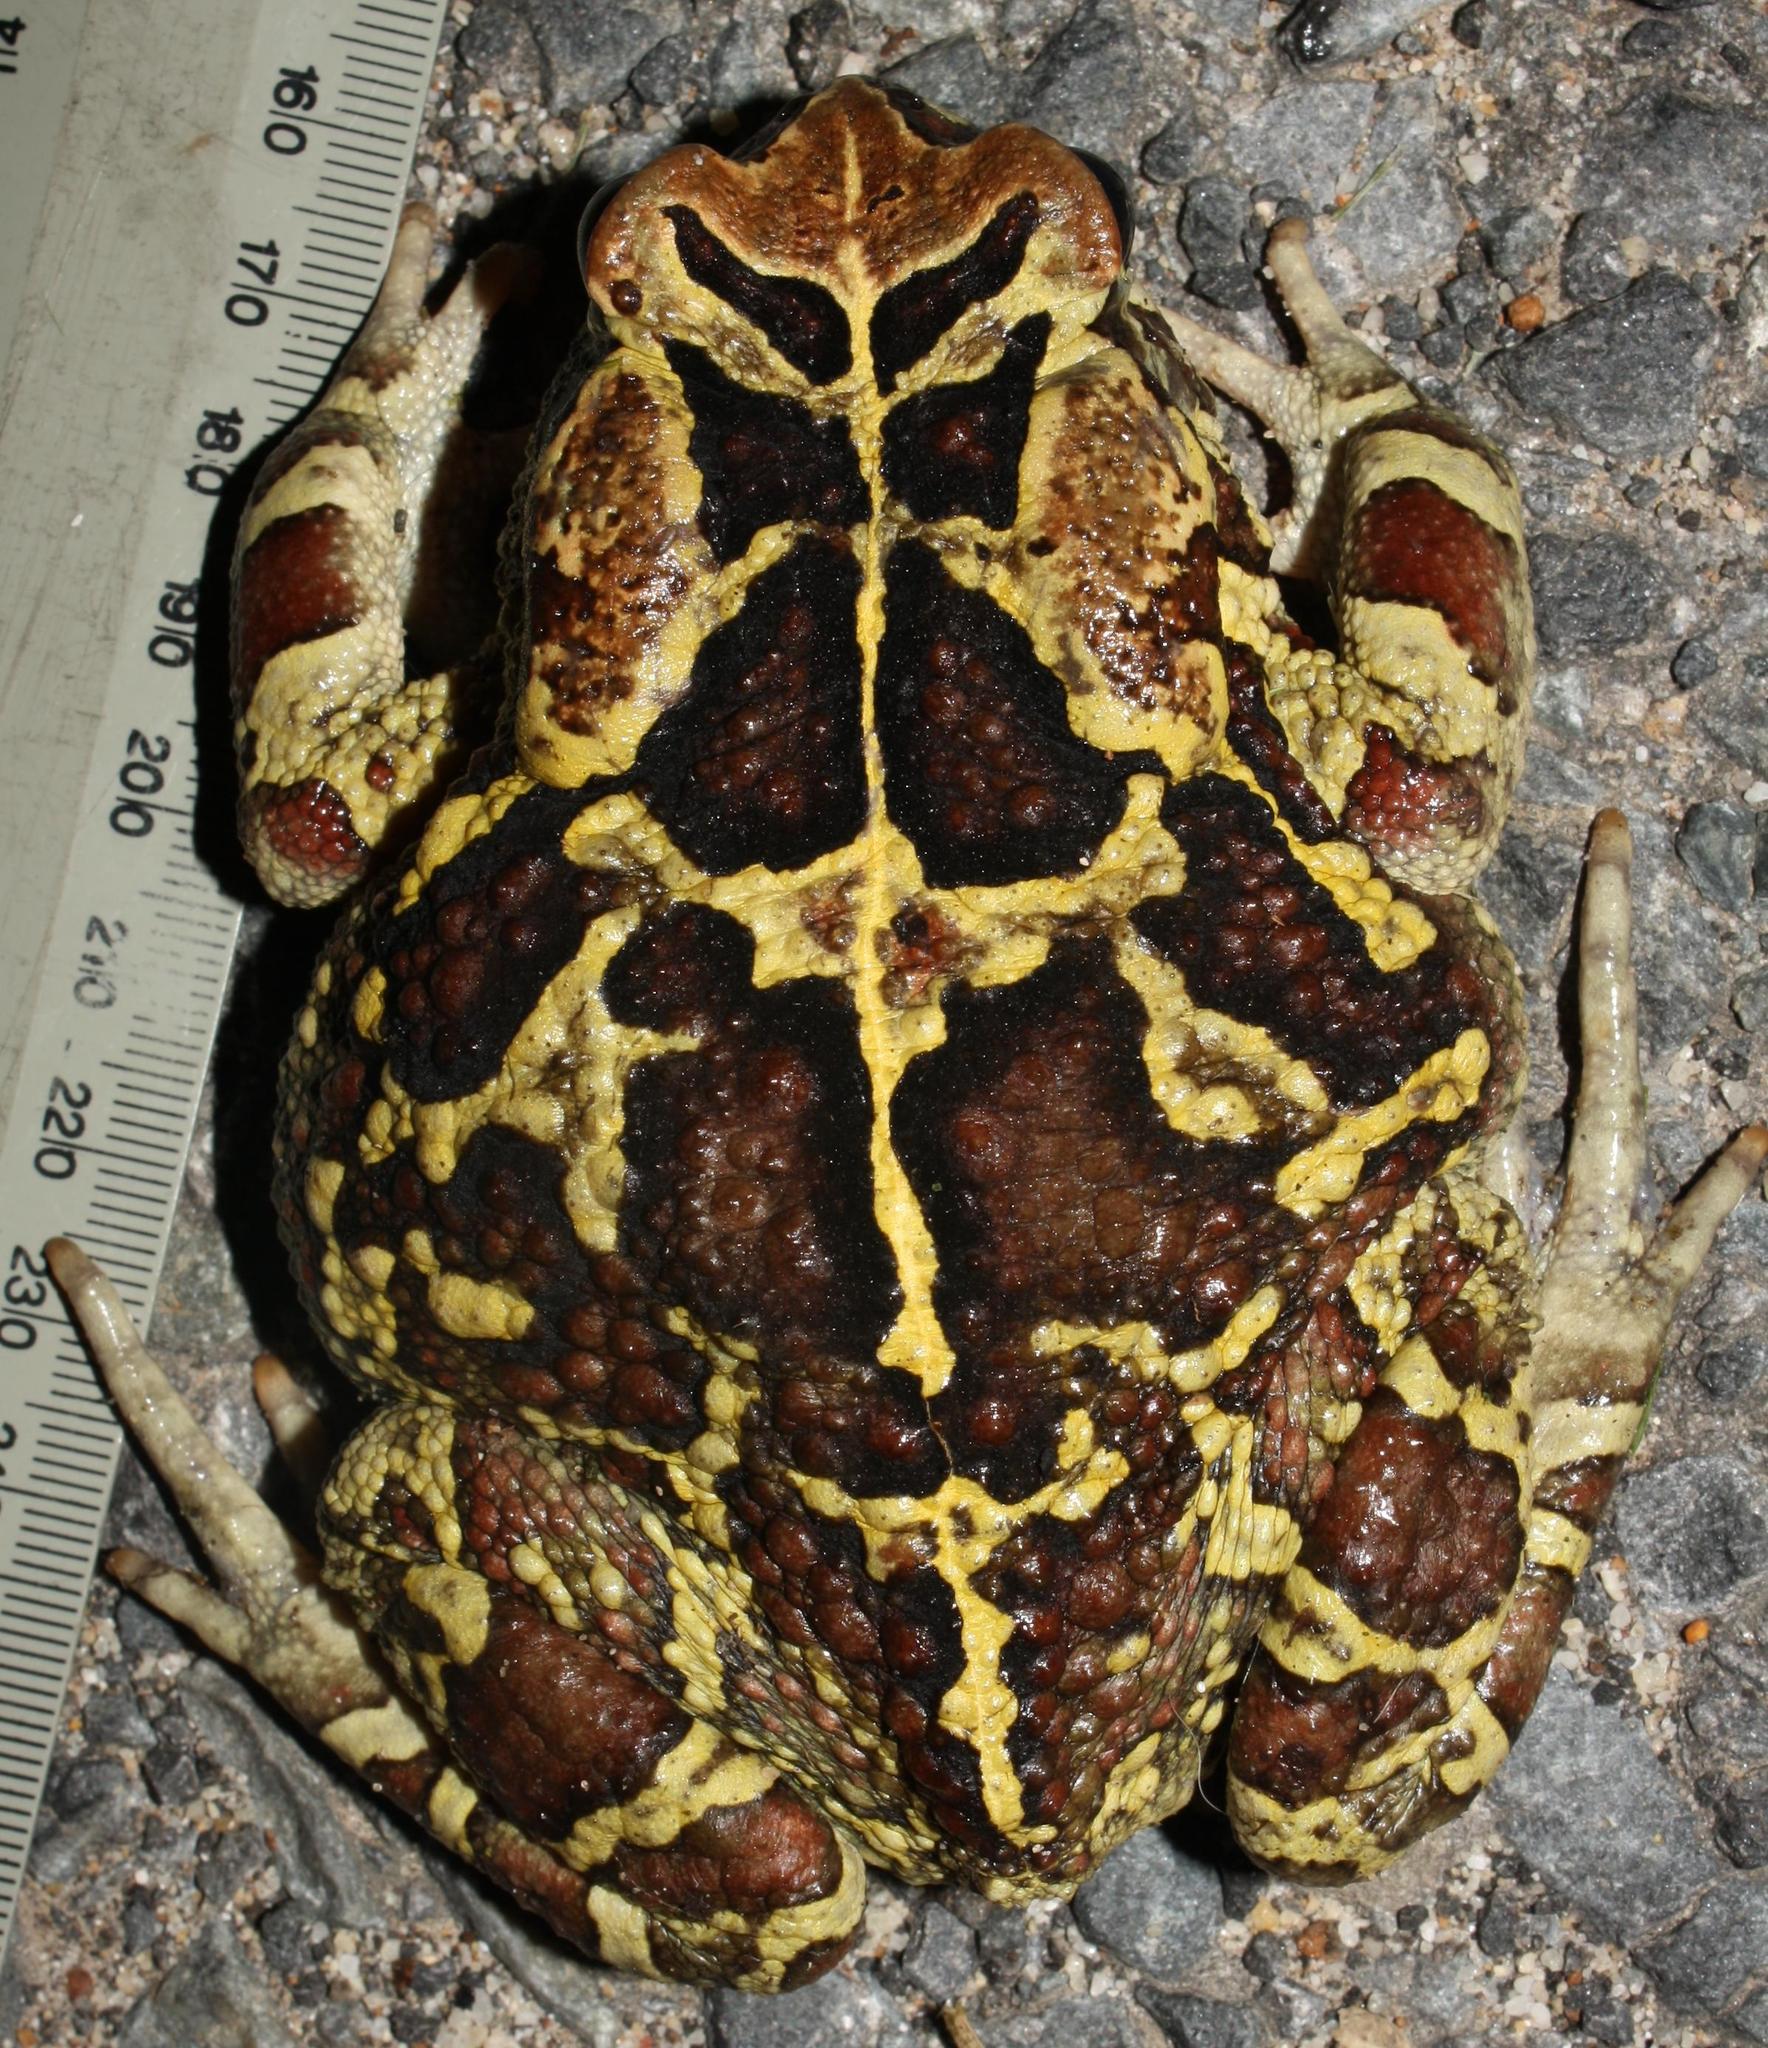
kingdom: Animalia
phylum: Chordata
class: Amphibia
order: Anura
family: Bufonidae
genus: Sclerophrys
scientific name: Sclerophrys pantherina
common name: Panther toad
